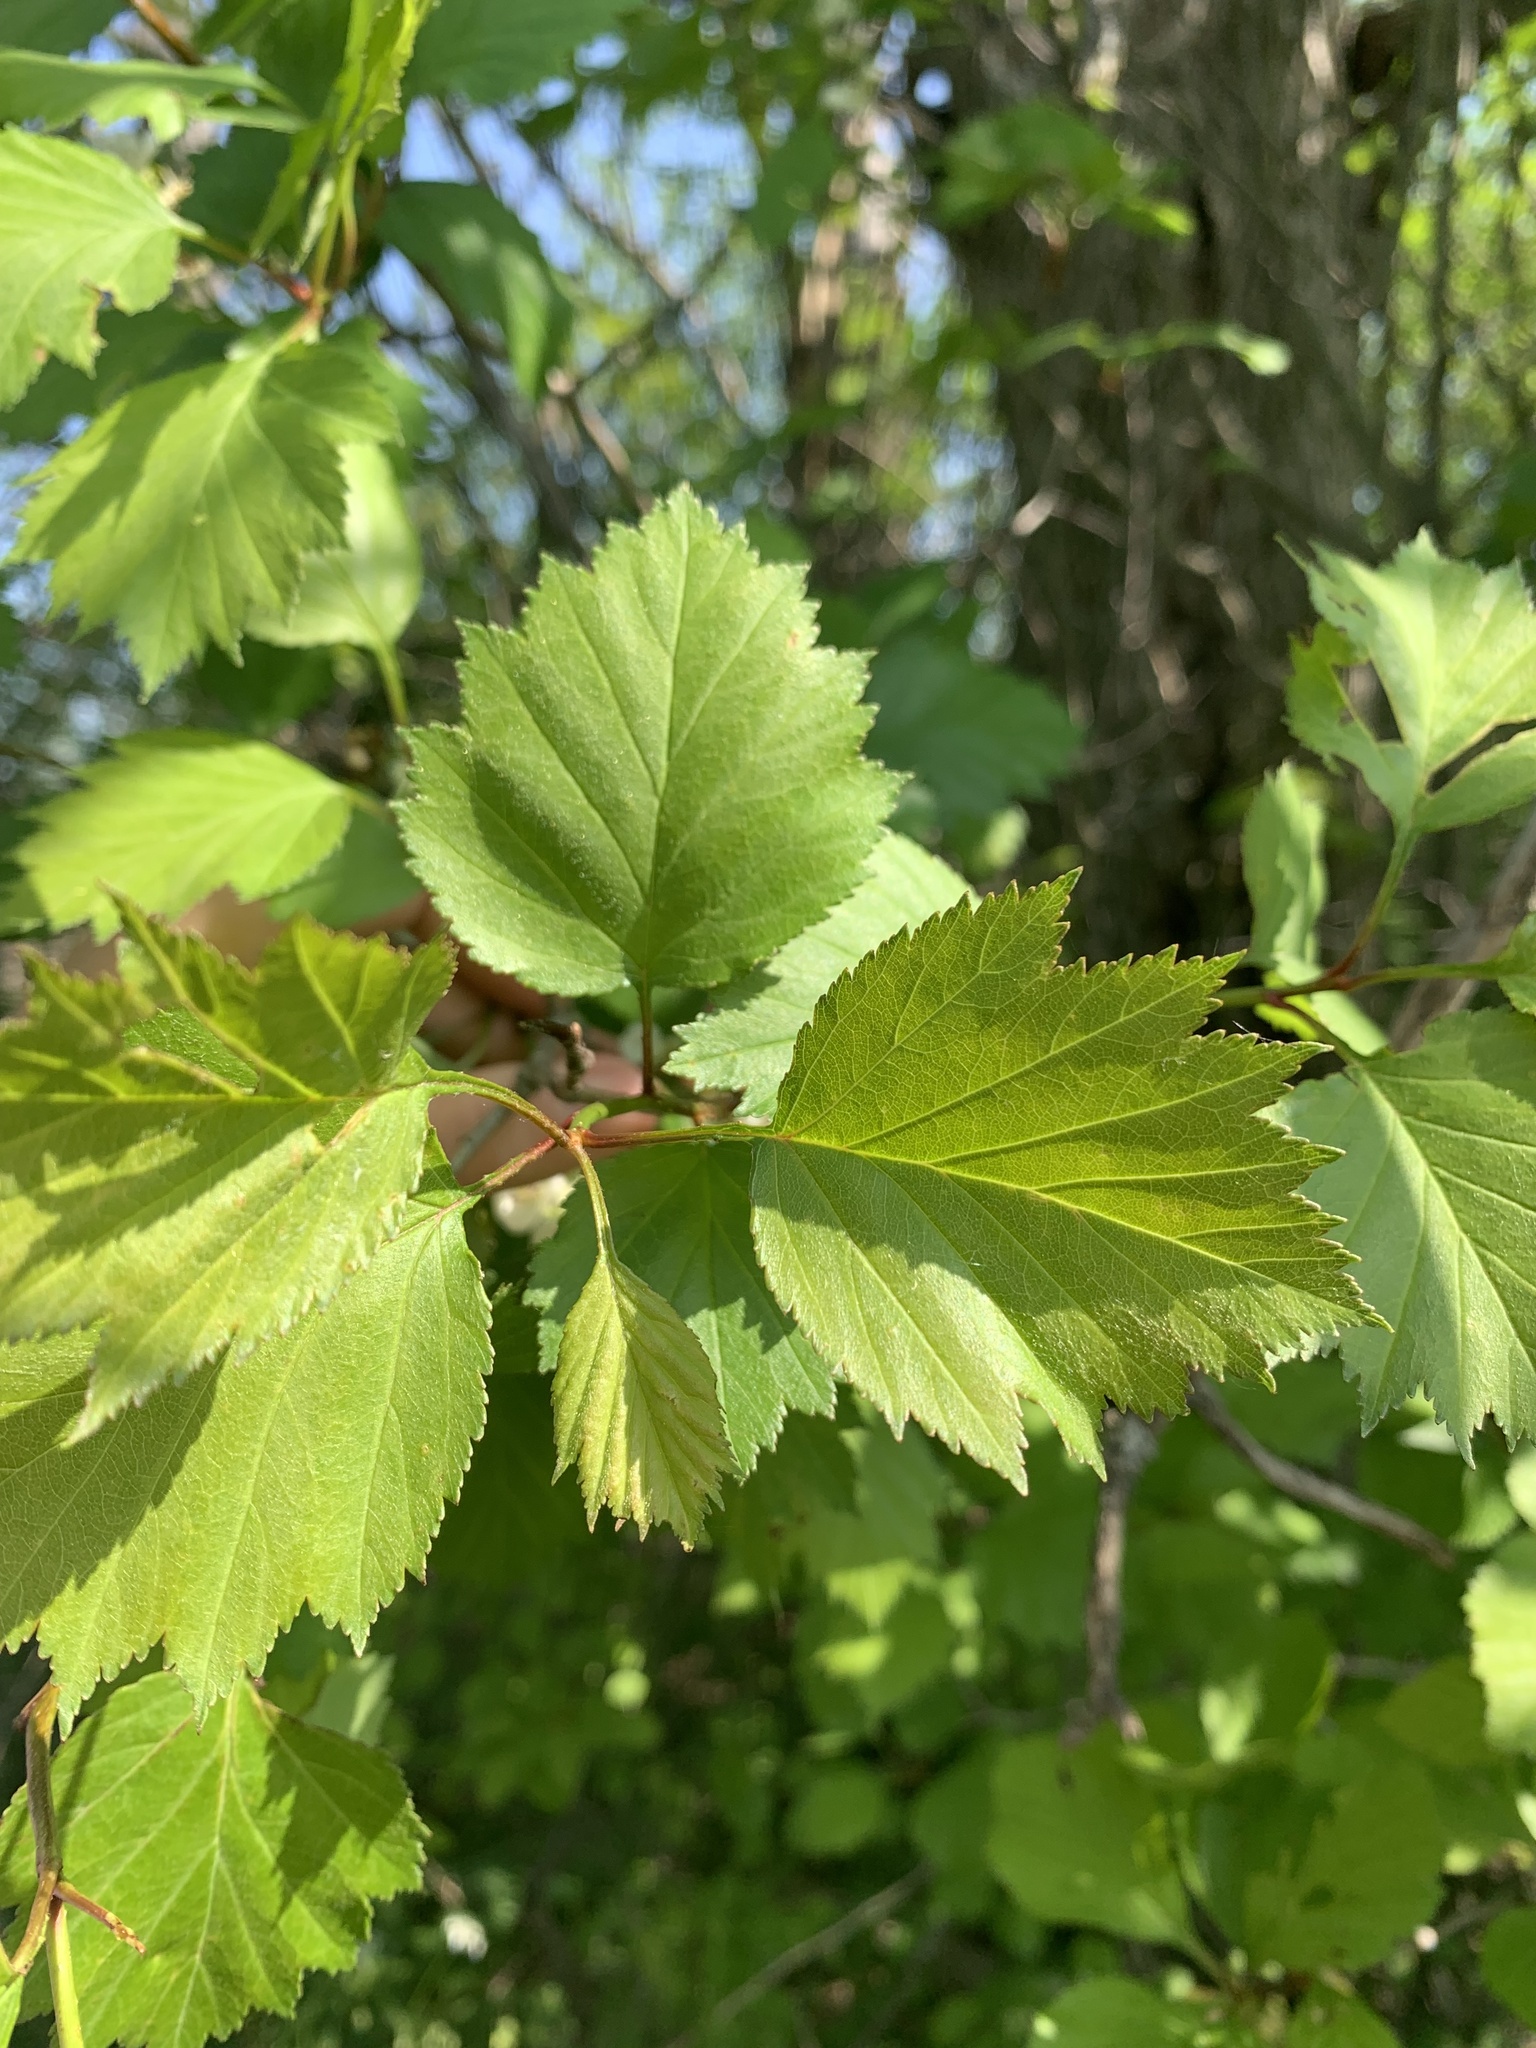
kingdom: Plantae
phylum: Tracheophyta
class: Magnoliopsida
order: Rosales
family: Rosaceae
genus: Crataegus
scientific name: Crataegus flabellata
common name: Bosc's hawthorn
